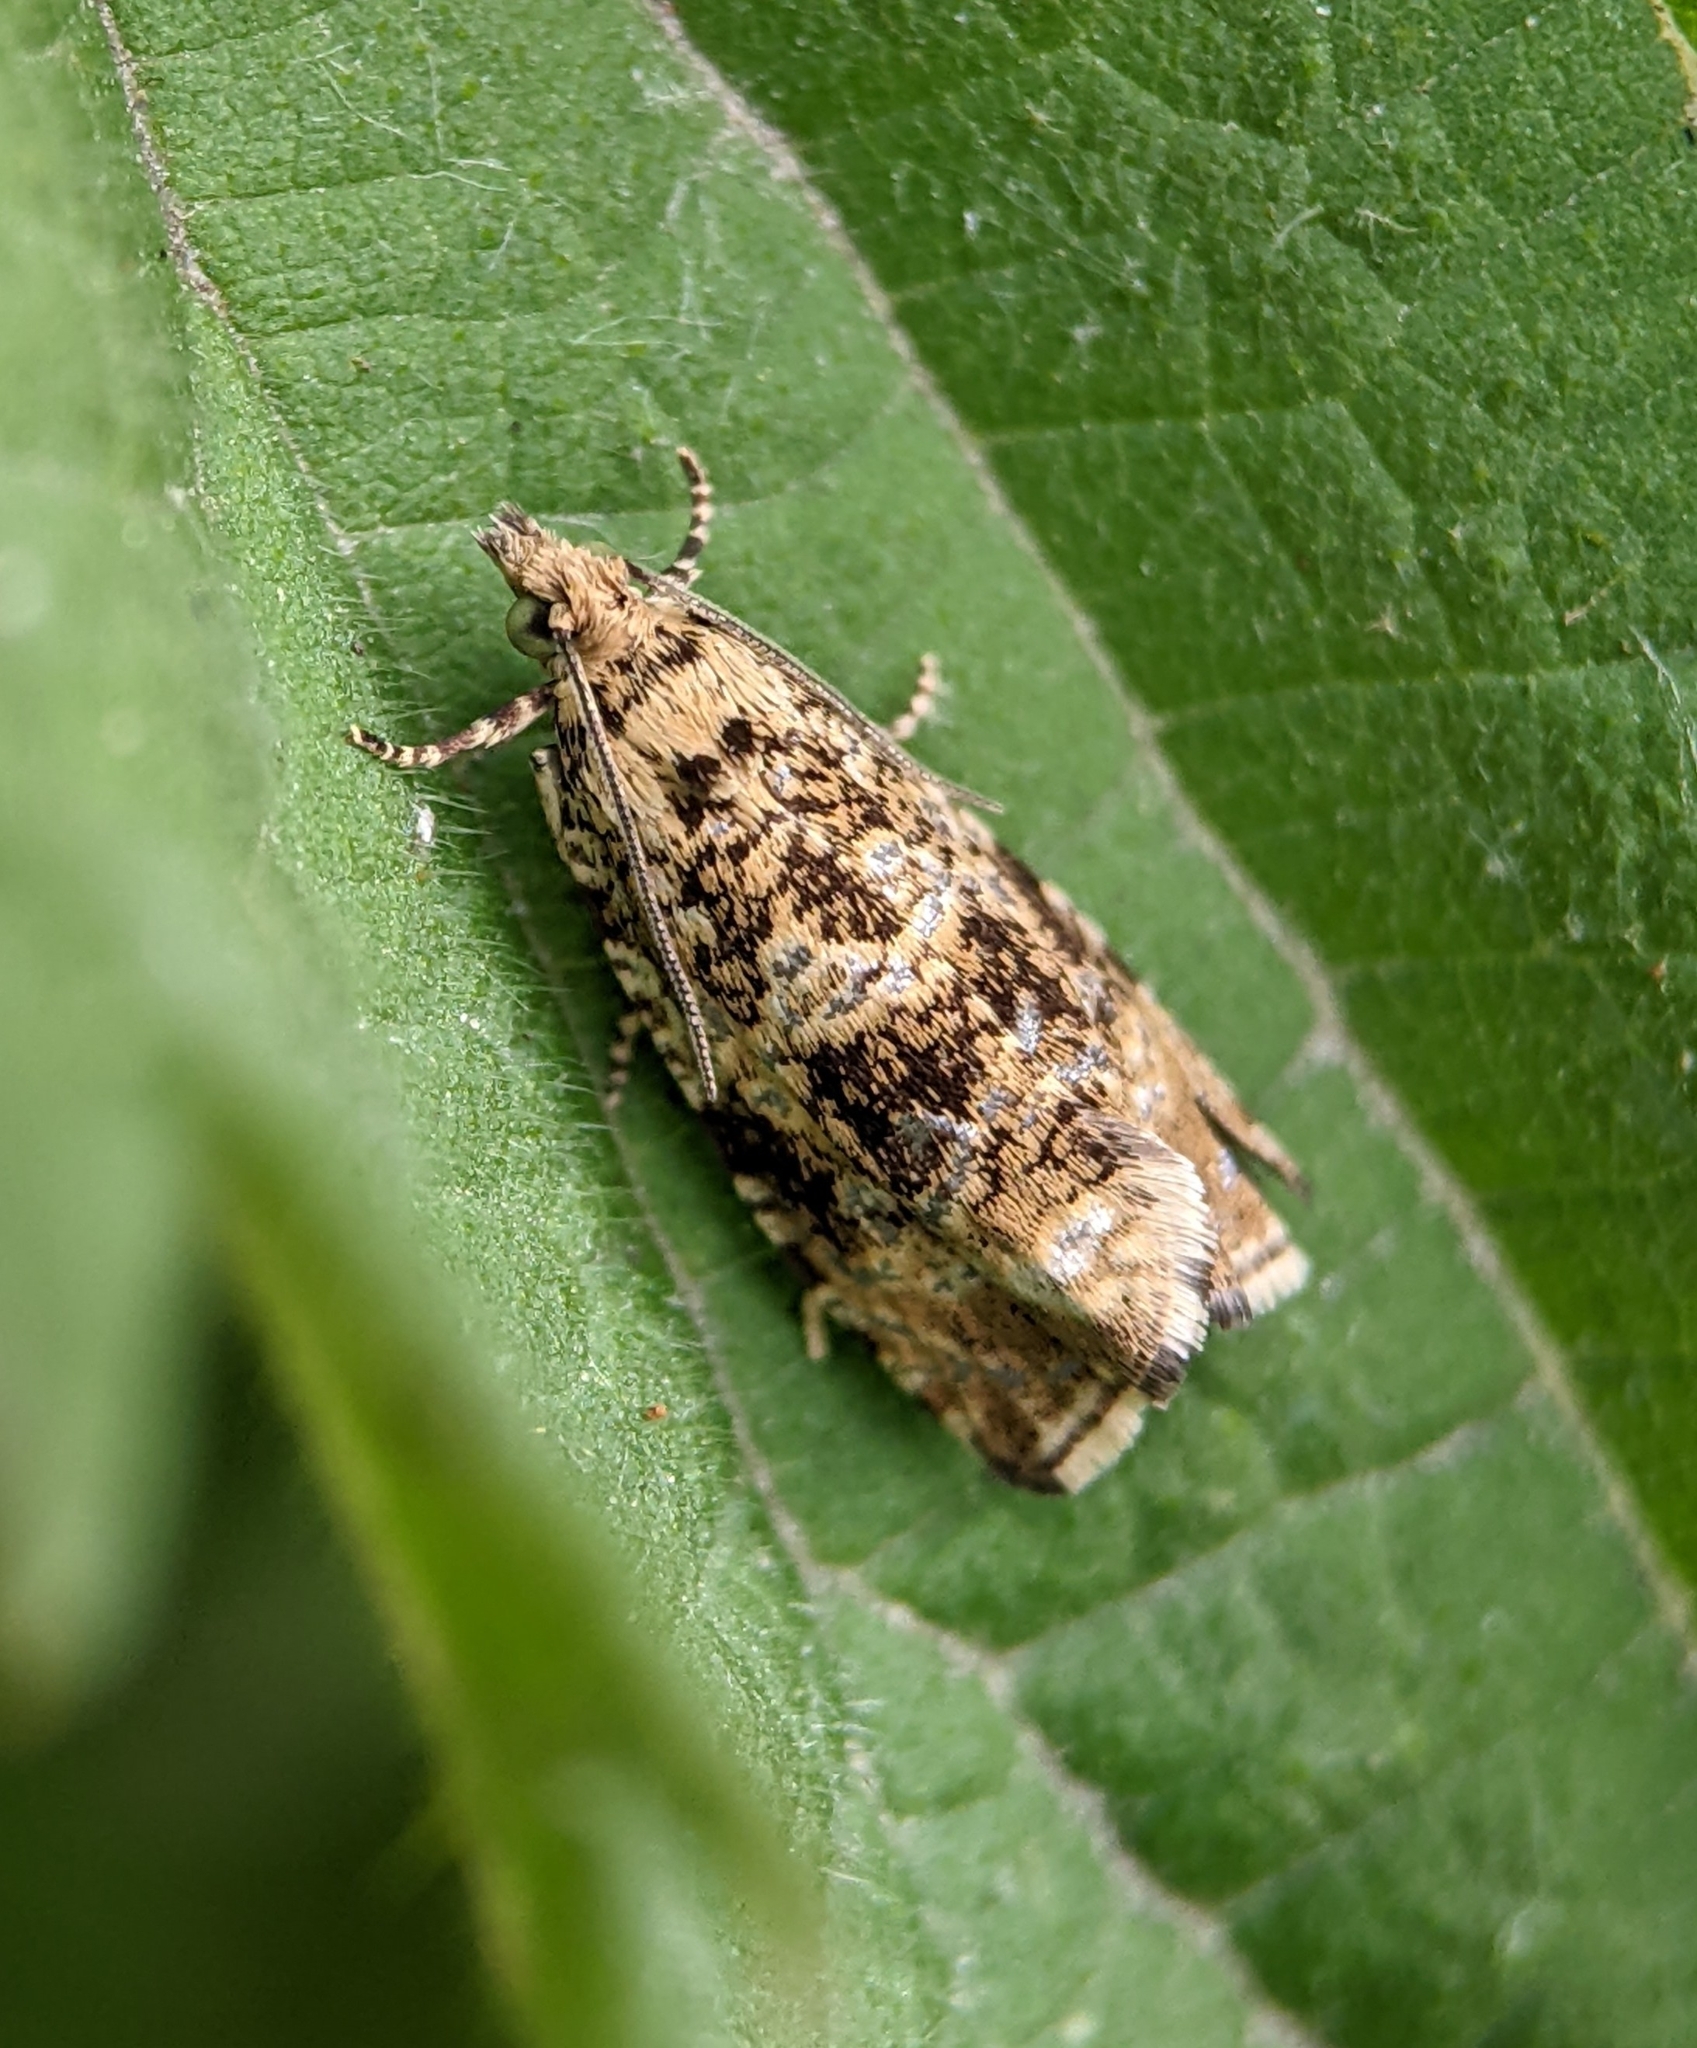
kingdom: Animalia
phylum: Arthropoda
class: Insecta
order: Lepidoptera
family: Tortricidae
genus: Syricoris
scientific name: Syricoris lacunana
